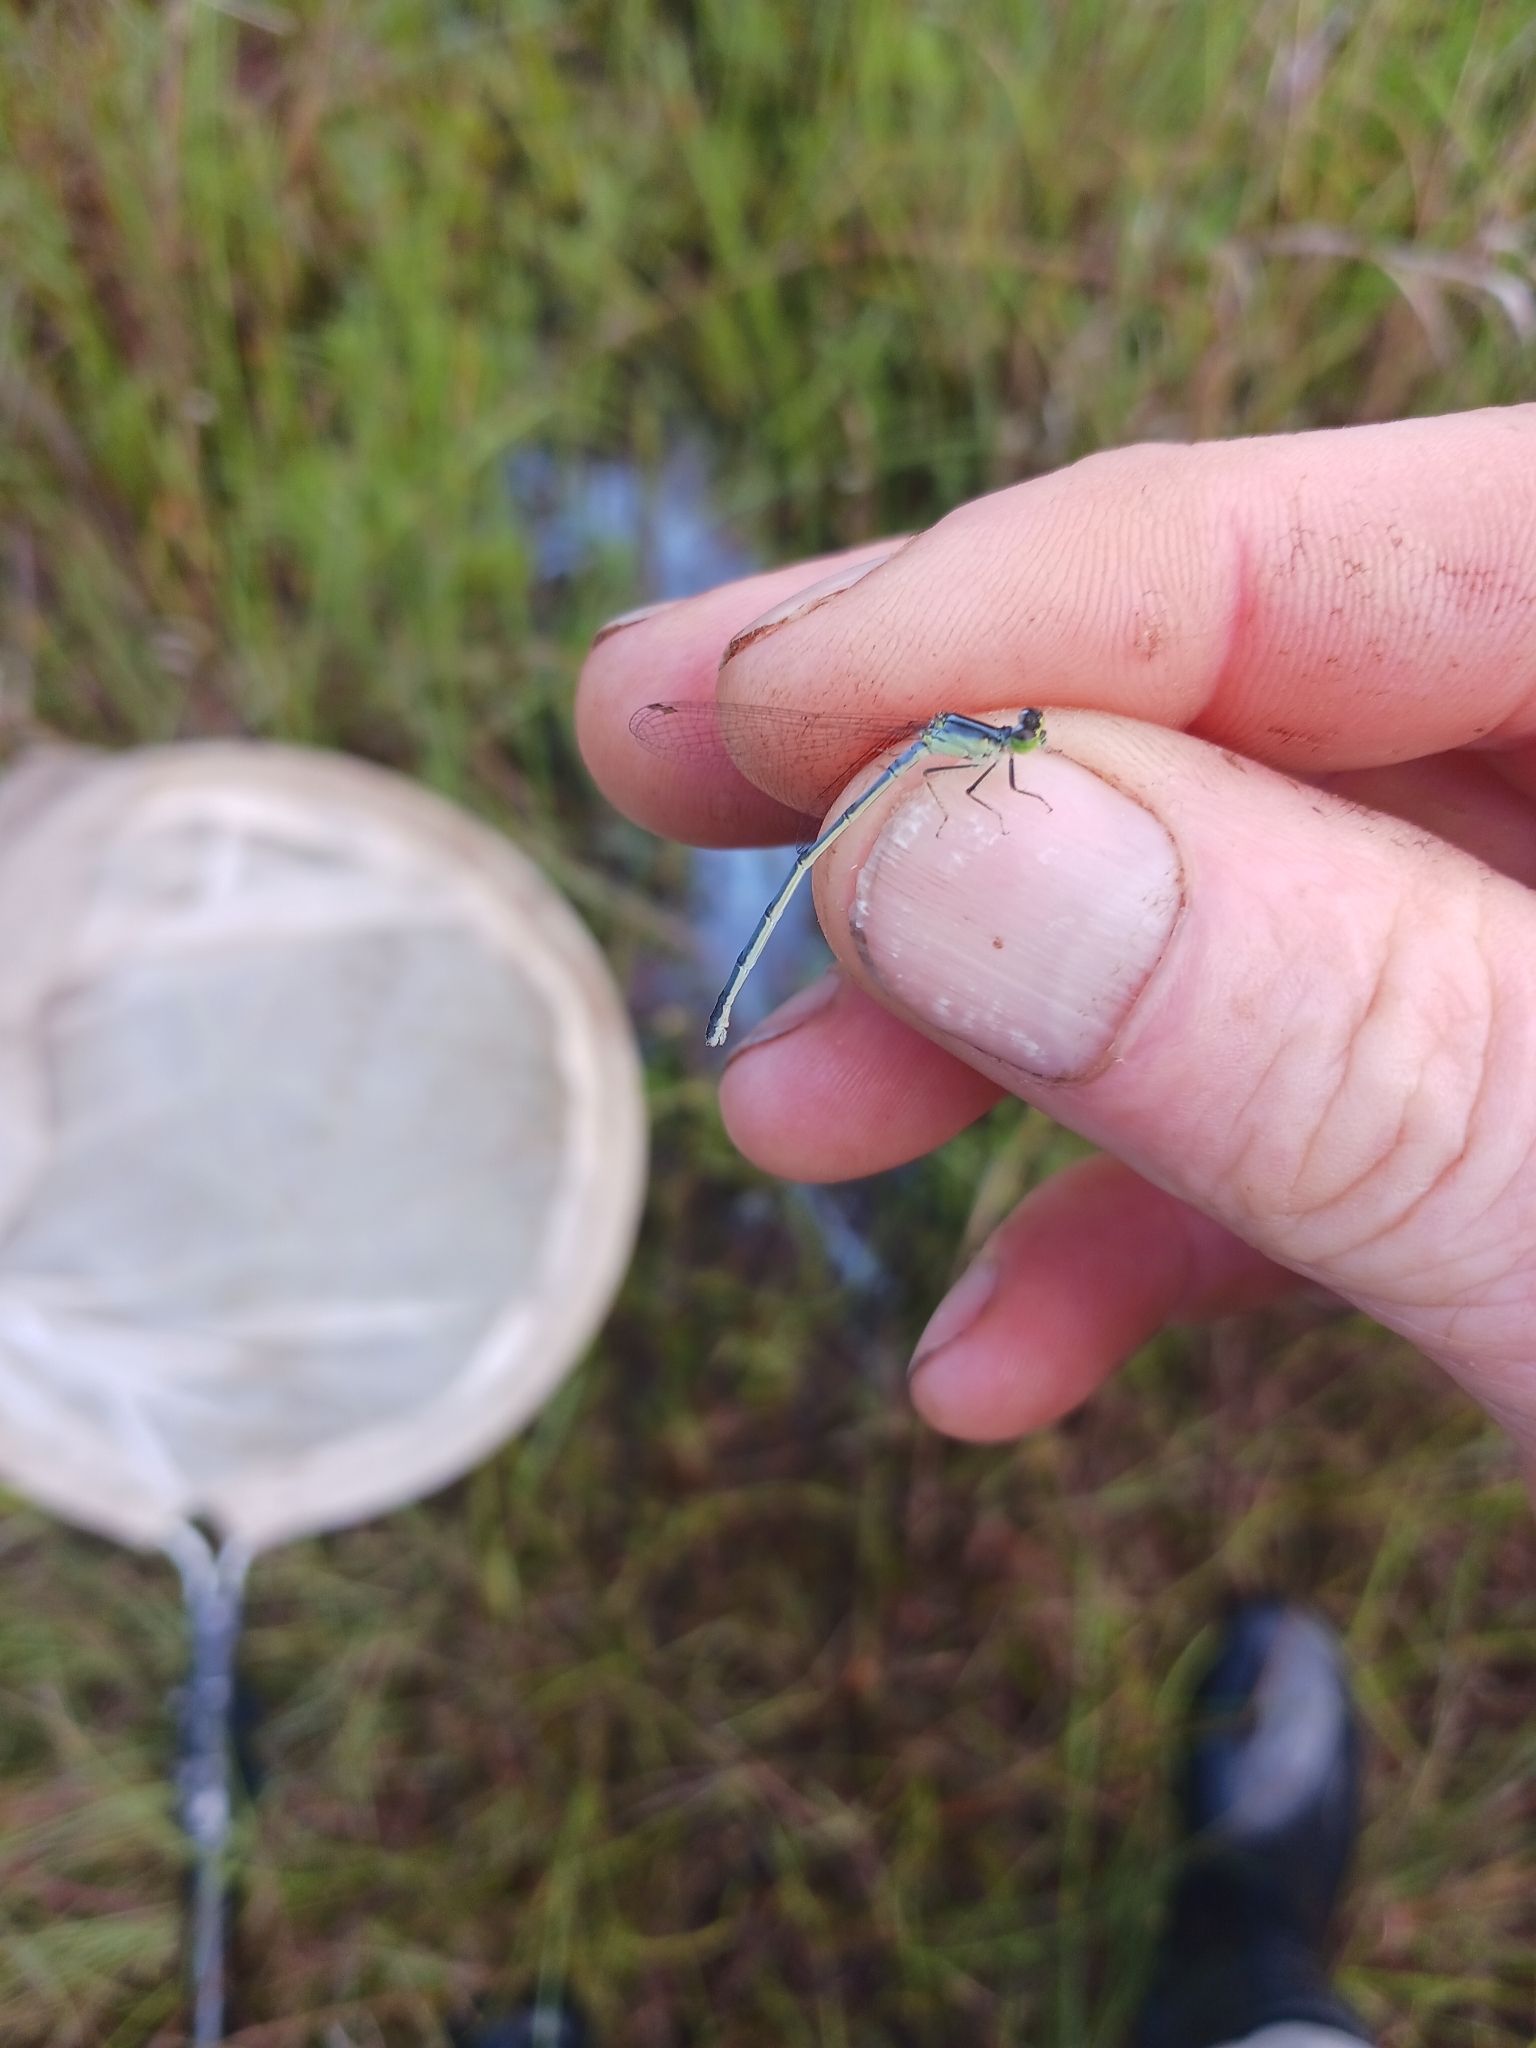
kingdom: Animalia
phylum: Arthropoda
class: Insecta
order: Odonata
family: Coenagrionidae
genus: Ischnura
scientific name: Ischnura verticalis
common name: Eastern forktail
